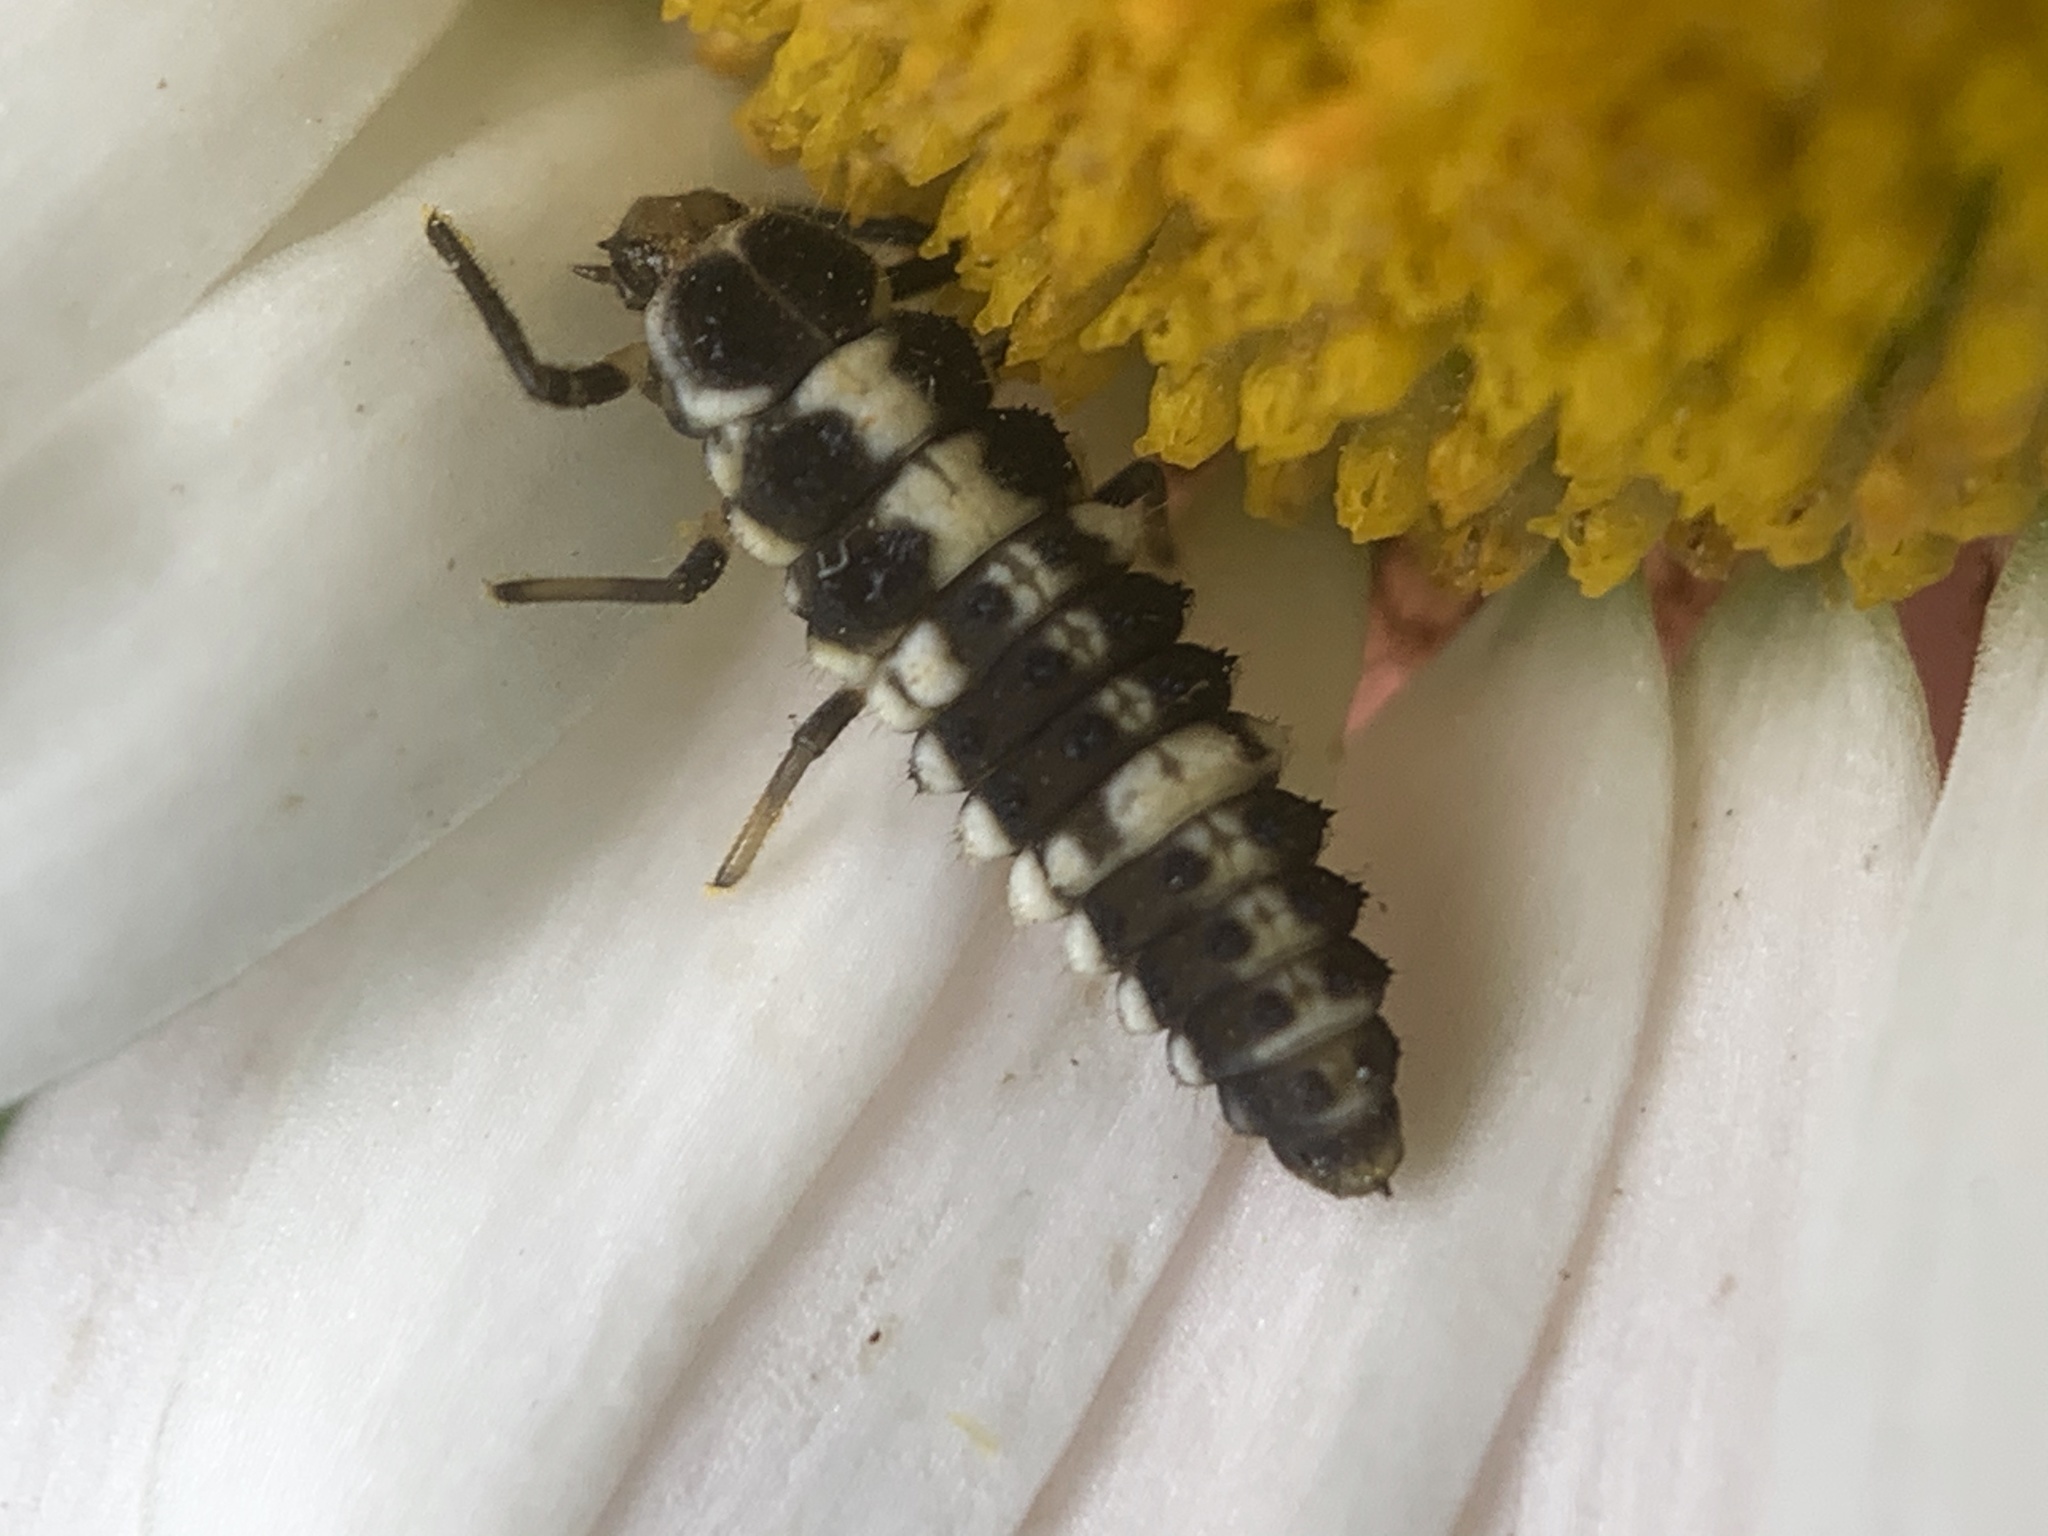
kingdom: Animalia
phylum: Arthropoda
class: Insecta
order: Coleoptera
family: Coccinellidae
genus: Propylaea
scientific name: Propylaea quatuordecimpunctata
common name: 14-spotted ladybird beetle
